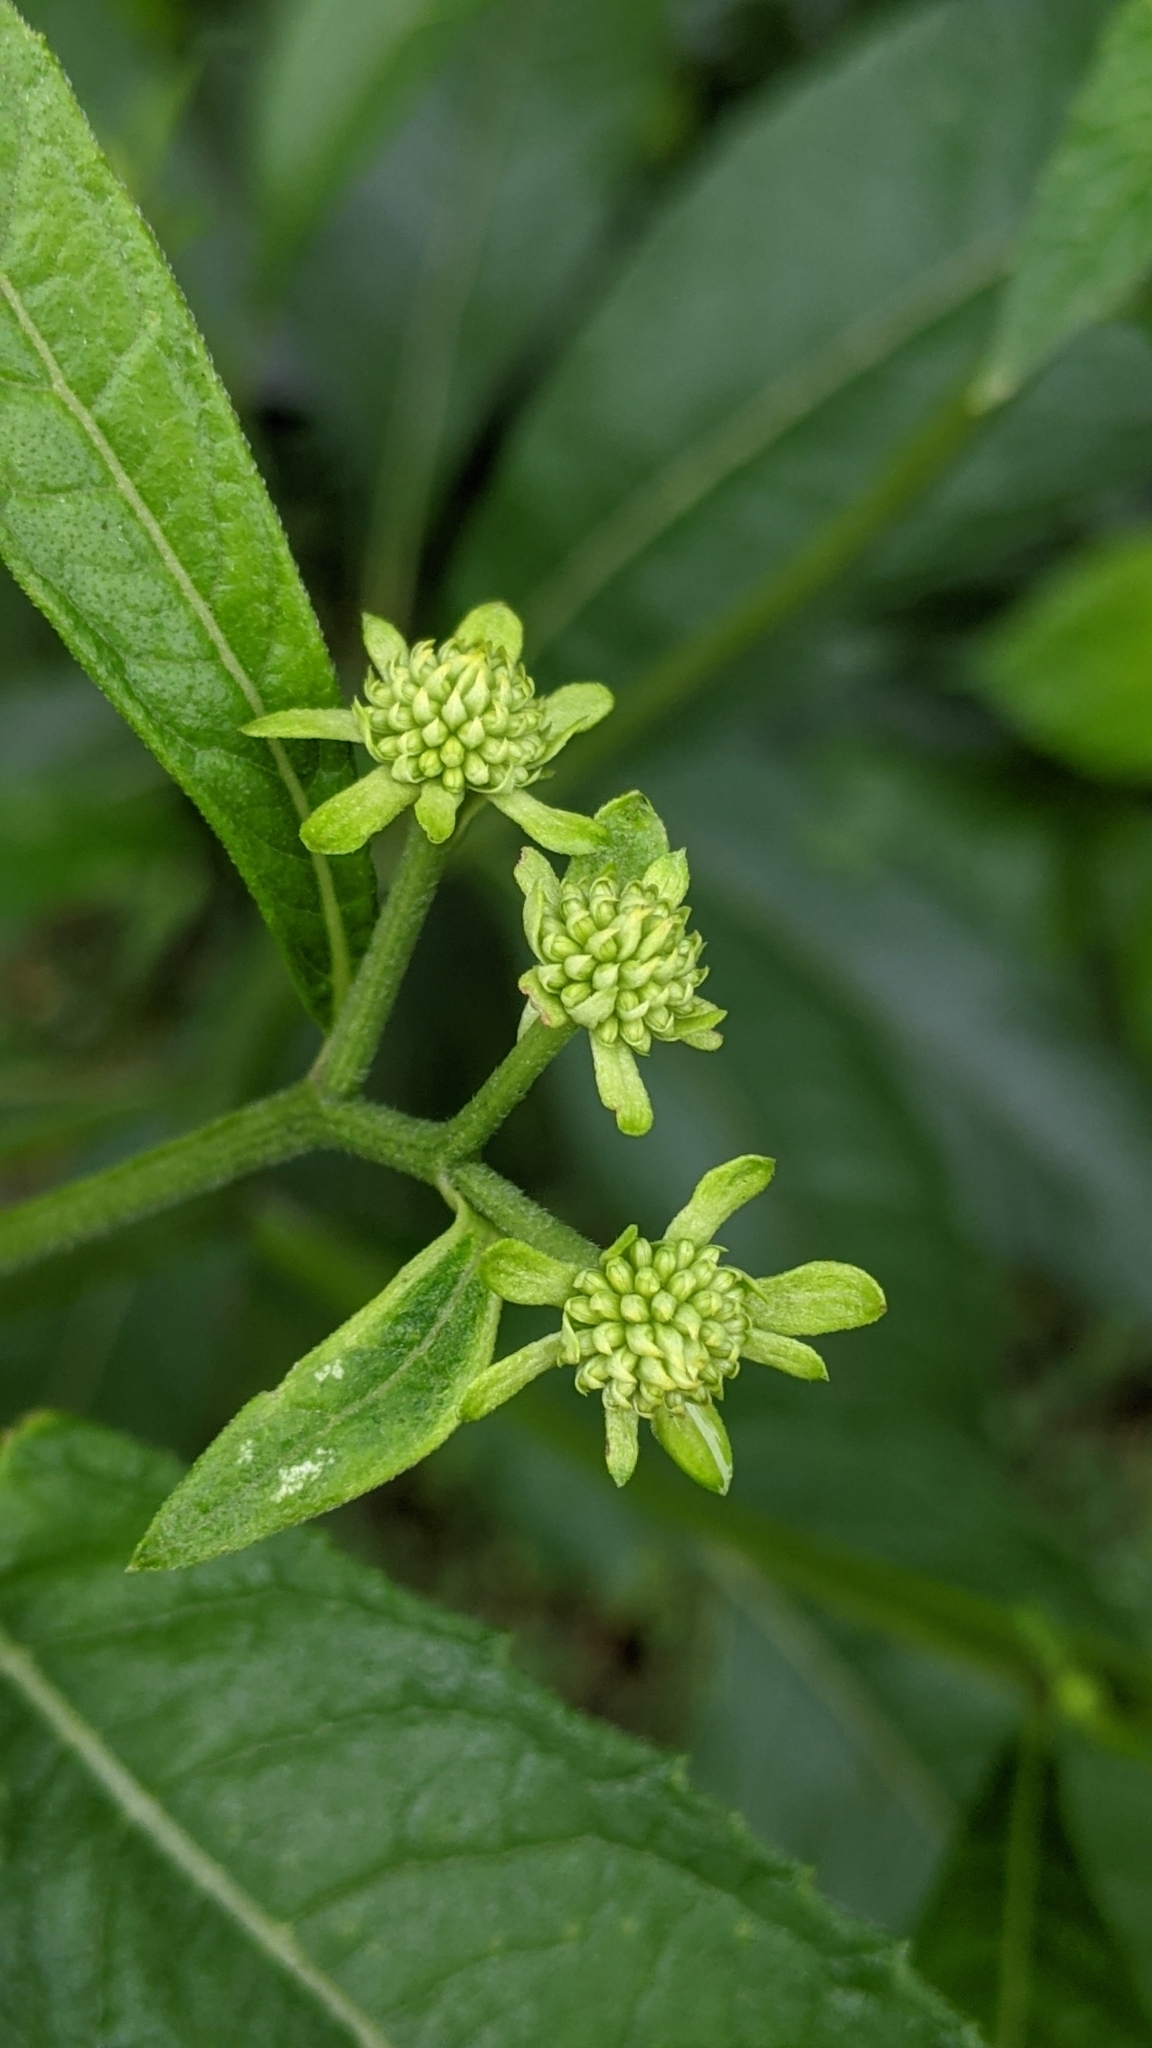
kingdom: Plantae
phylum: Tracheophyta
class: Magnoliopsida
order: Asterales
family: Asteraceae
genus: Verbesina
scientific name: Verbesina alternifolia
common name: Wingstem
